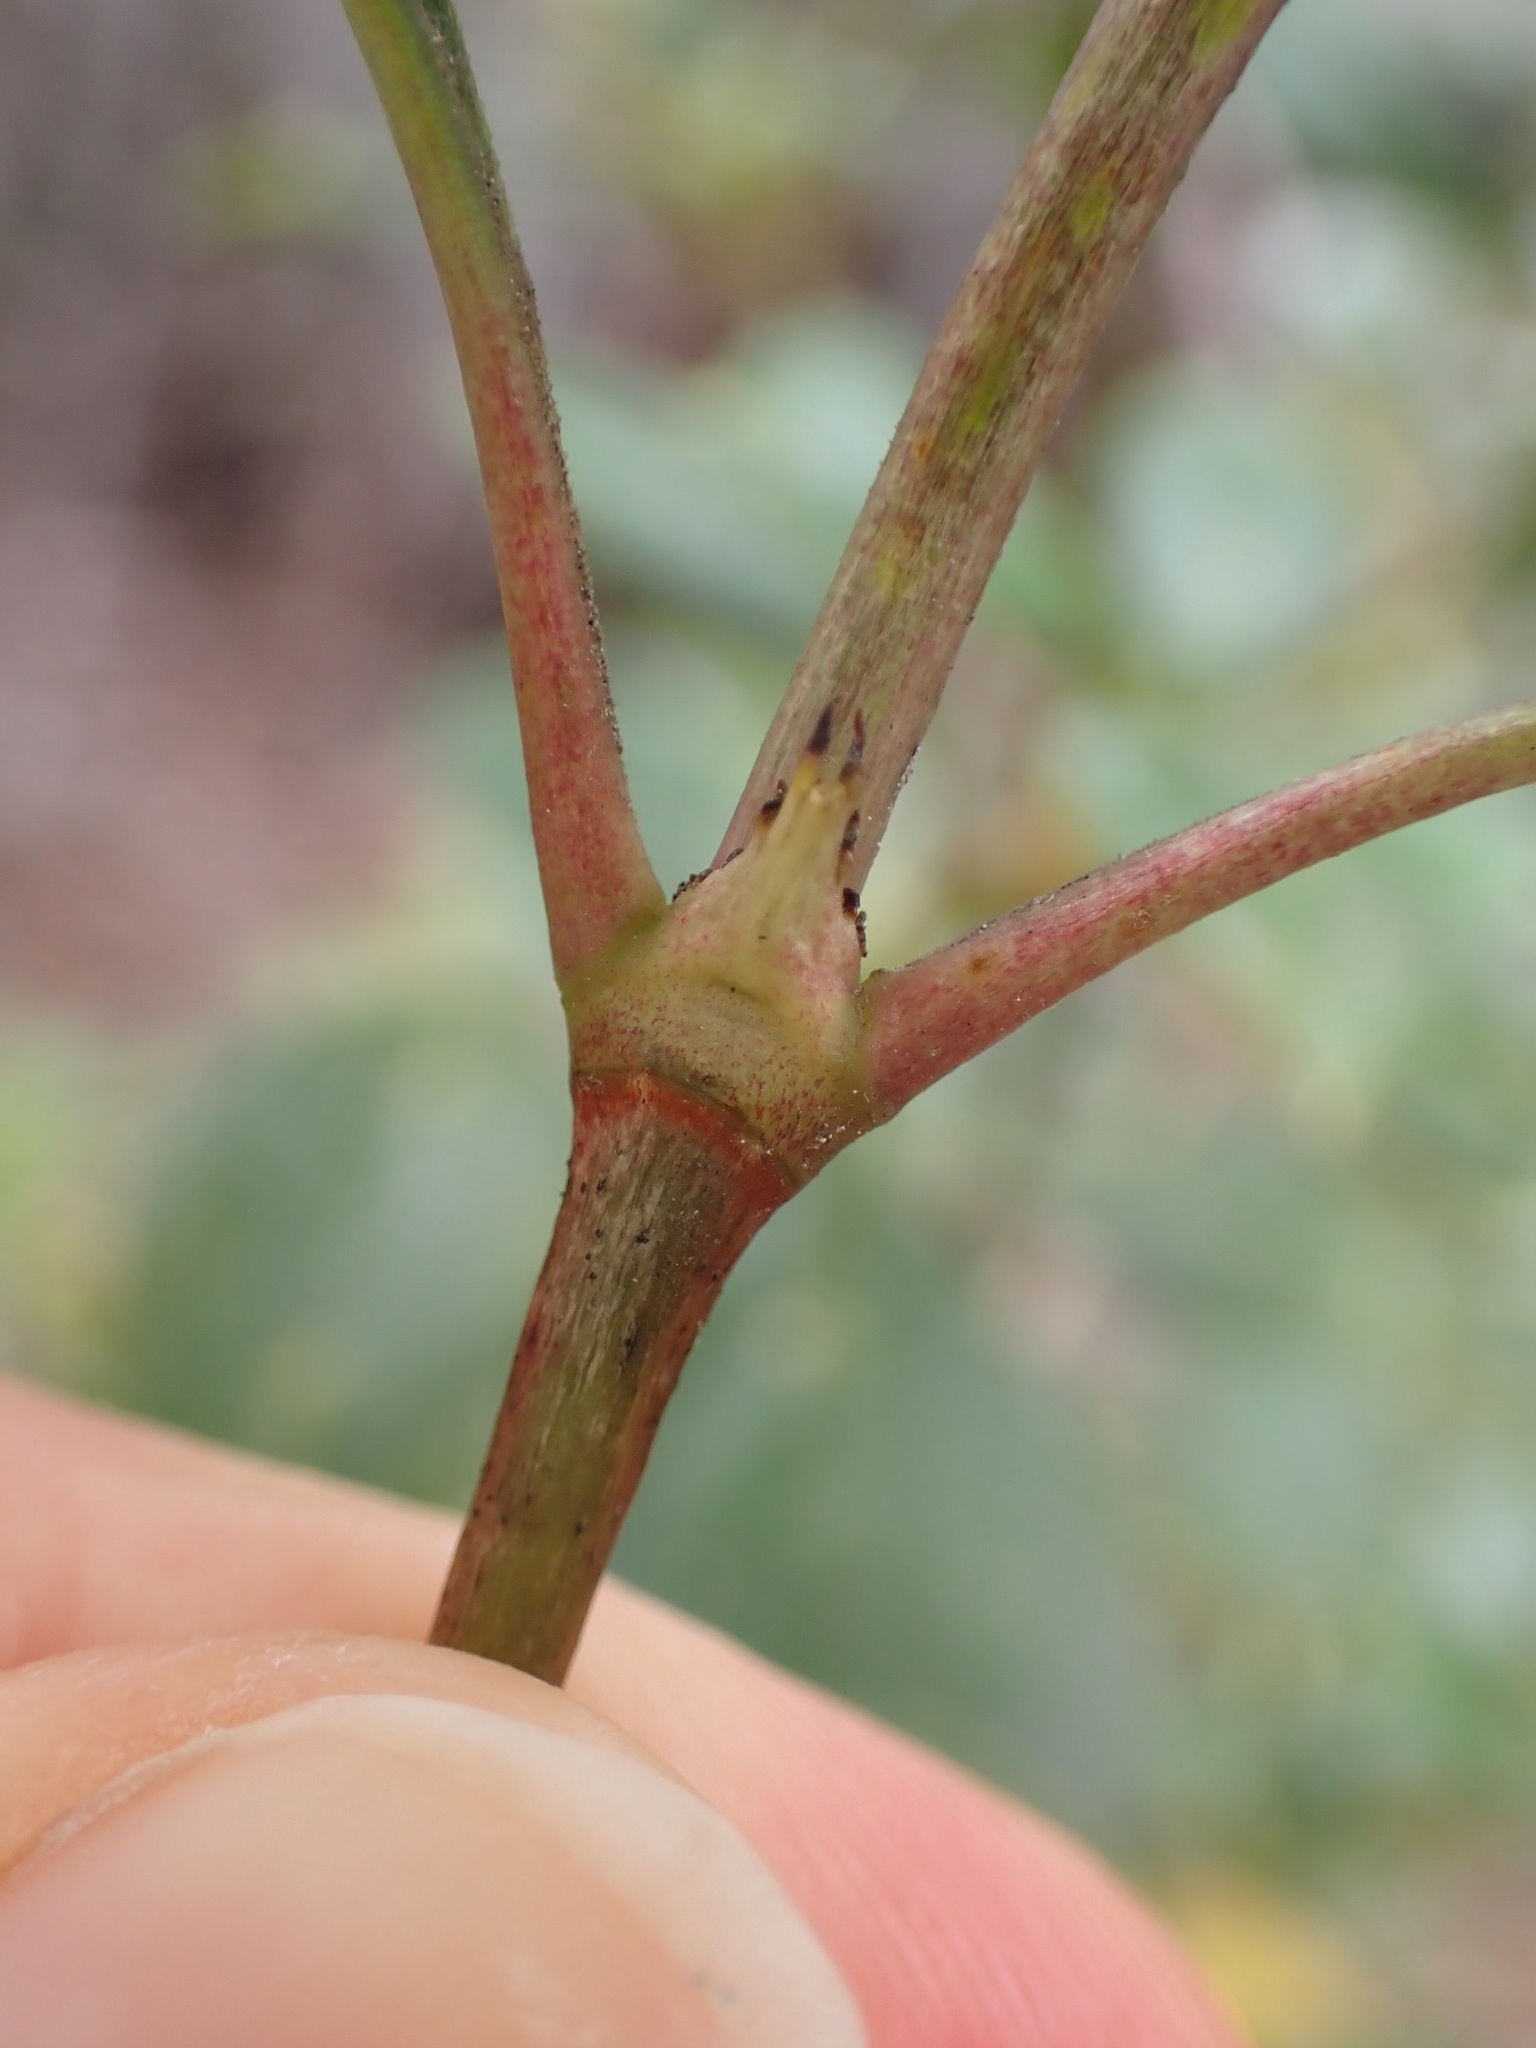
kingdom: Plantae
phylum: Tracheophyta
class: Magnoliopsida
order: Gentianales
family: Rubiaceae
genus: Coprosma
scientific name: Coprosma hirtella
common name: Rough coprosma
